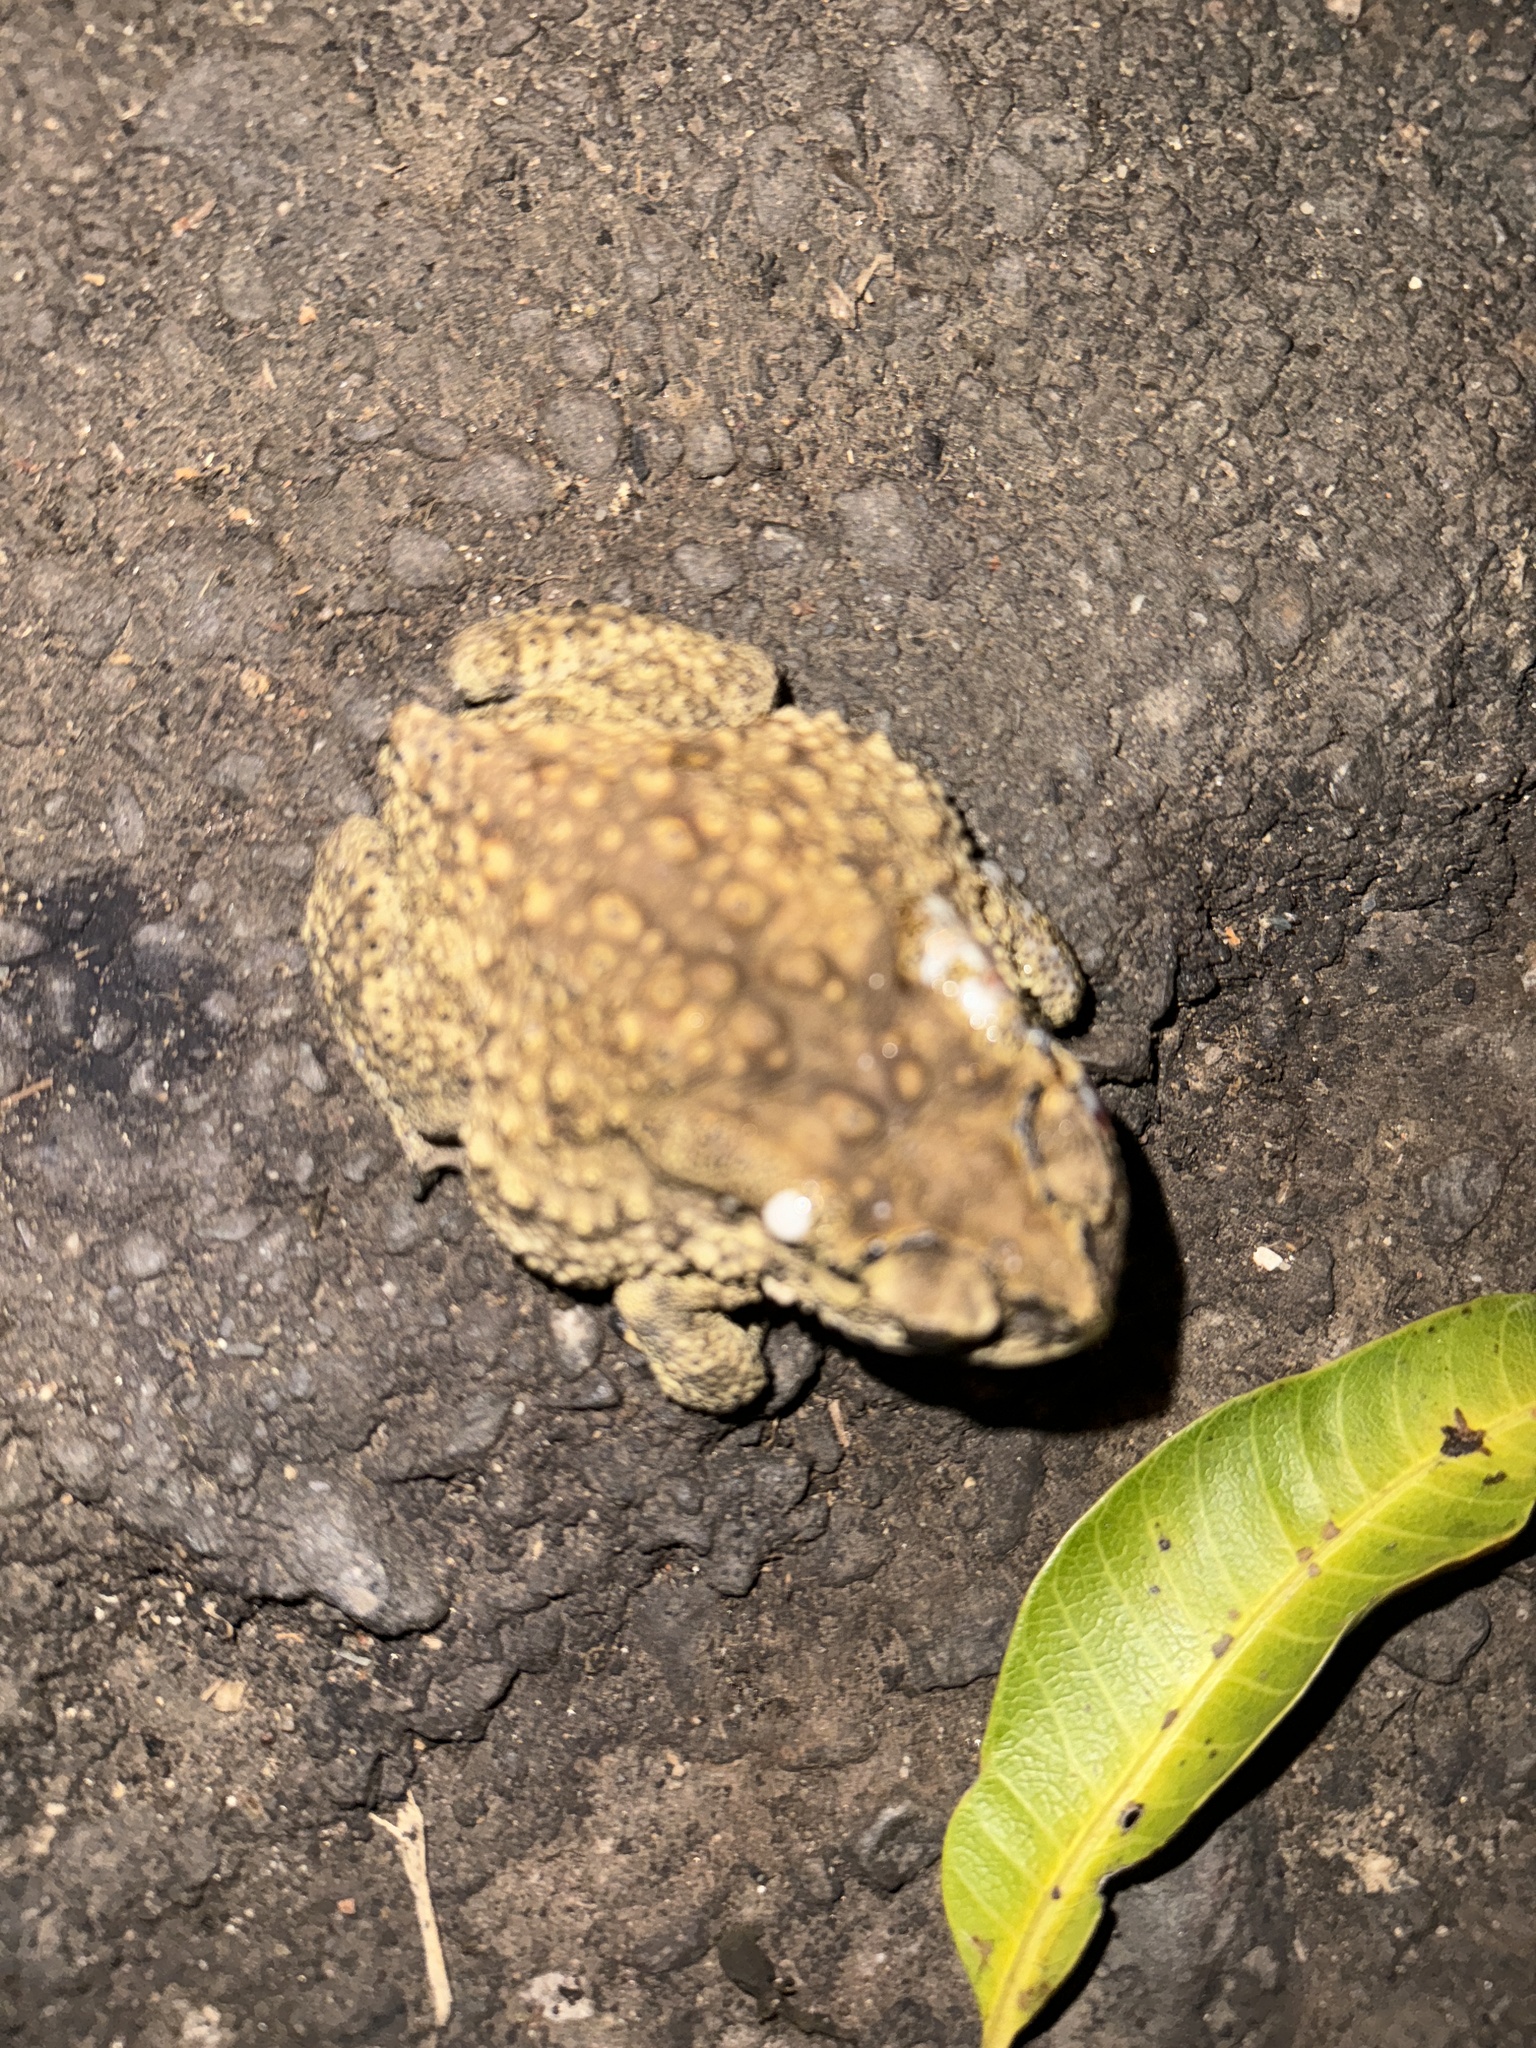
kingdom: Animalia
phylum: Chordata
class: Amphibia
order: Anura
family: Bufonidae
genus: Duttaphrynus
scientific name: Duttaphrynus melanostictus
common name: Common sunda toad
